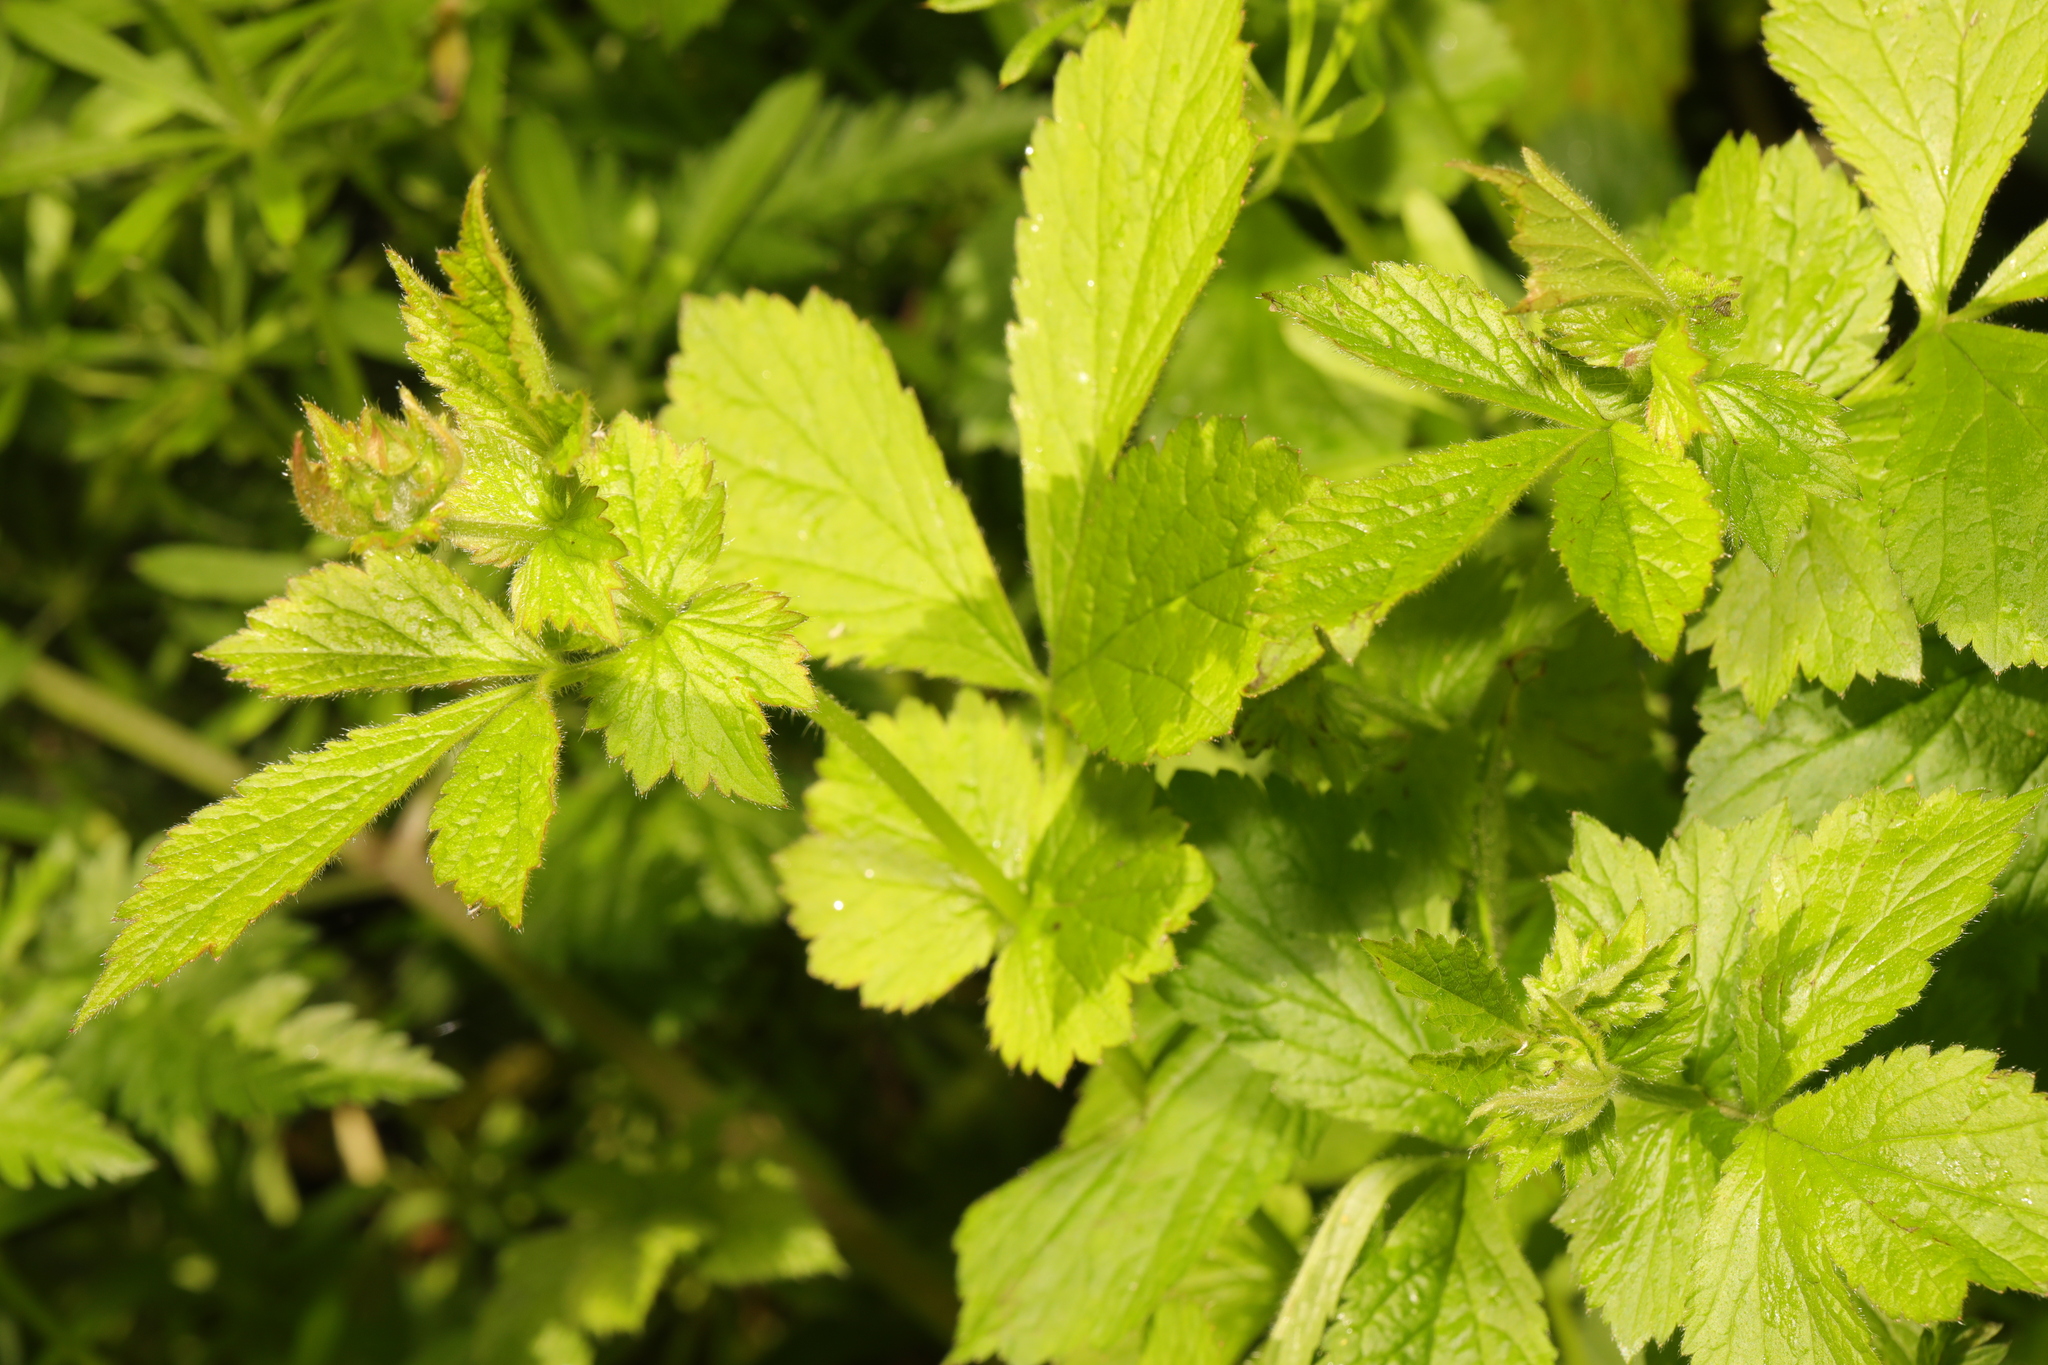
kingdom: Plantae
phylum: Tracheophyta
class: Magnoliopsida
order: Rosales
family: Rosaceae
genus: Geum
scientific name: Geum urbanum
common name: Wood avens
